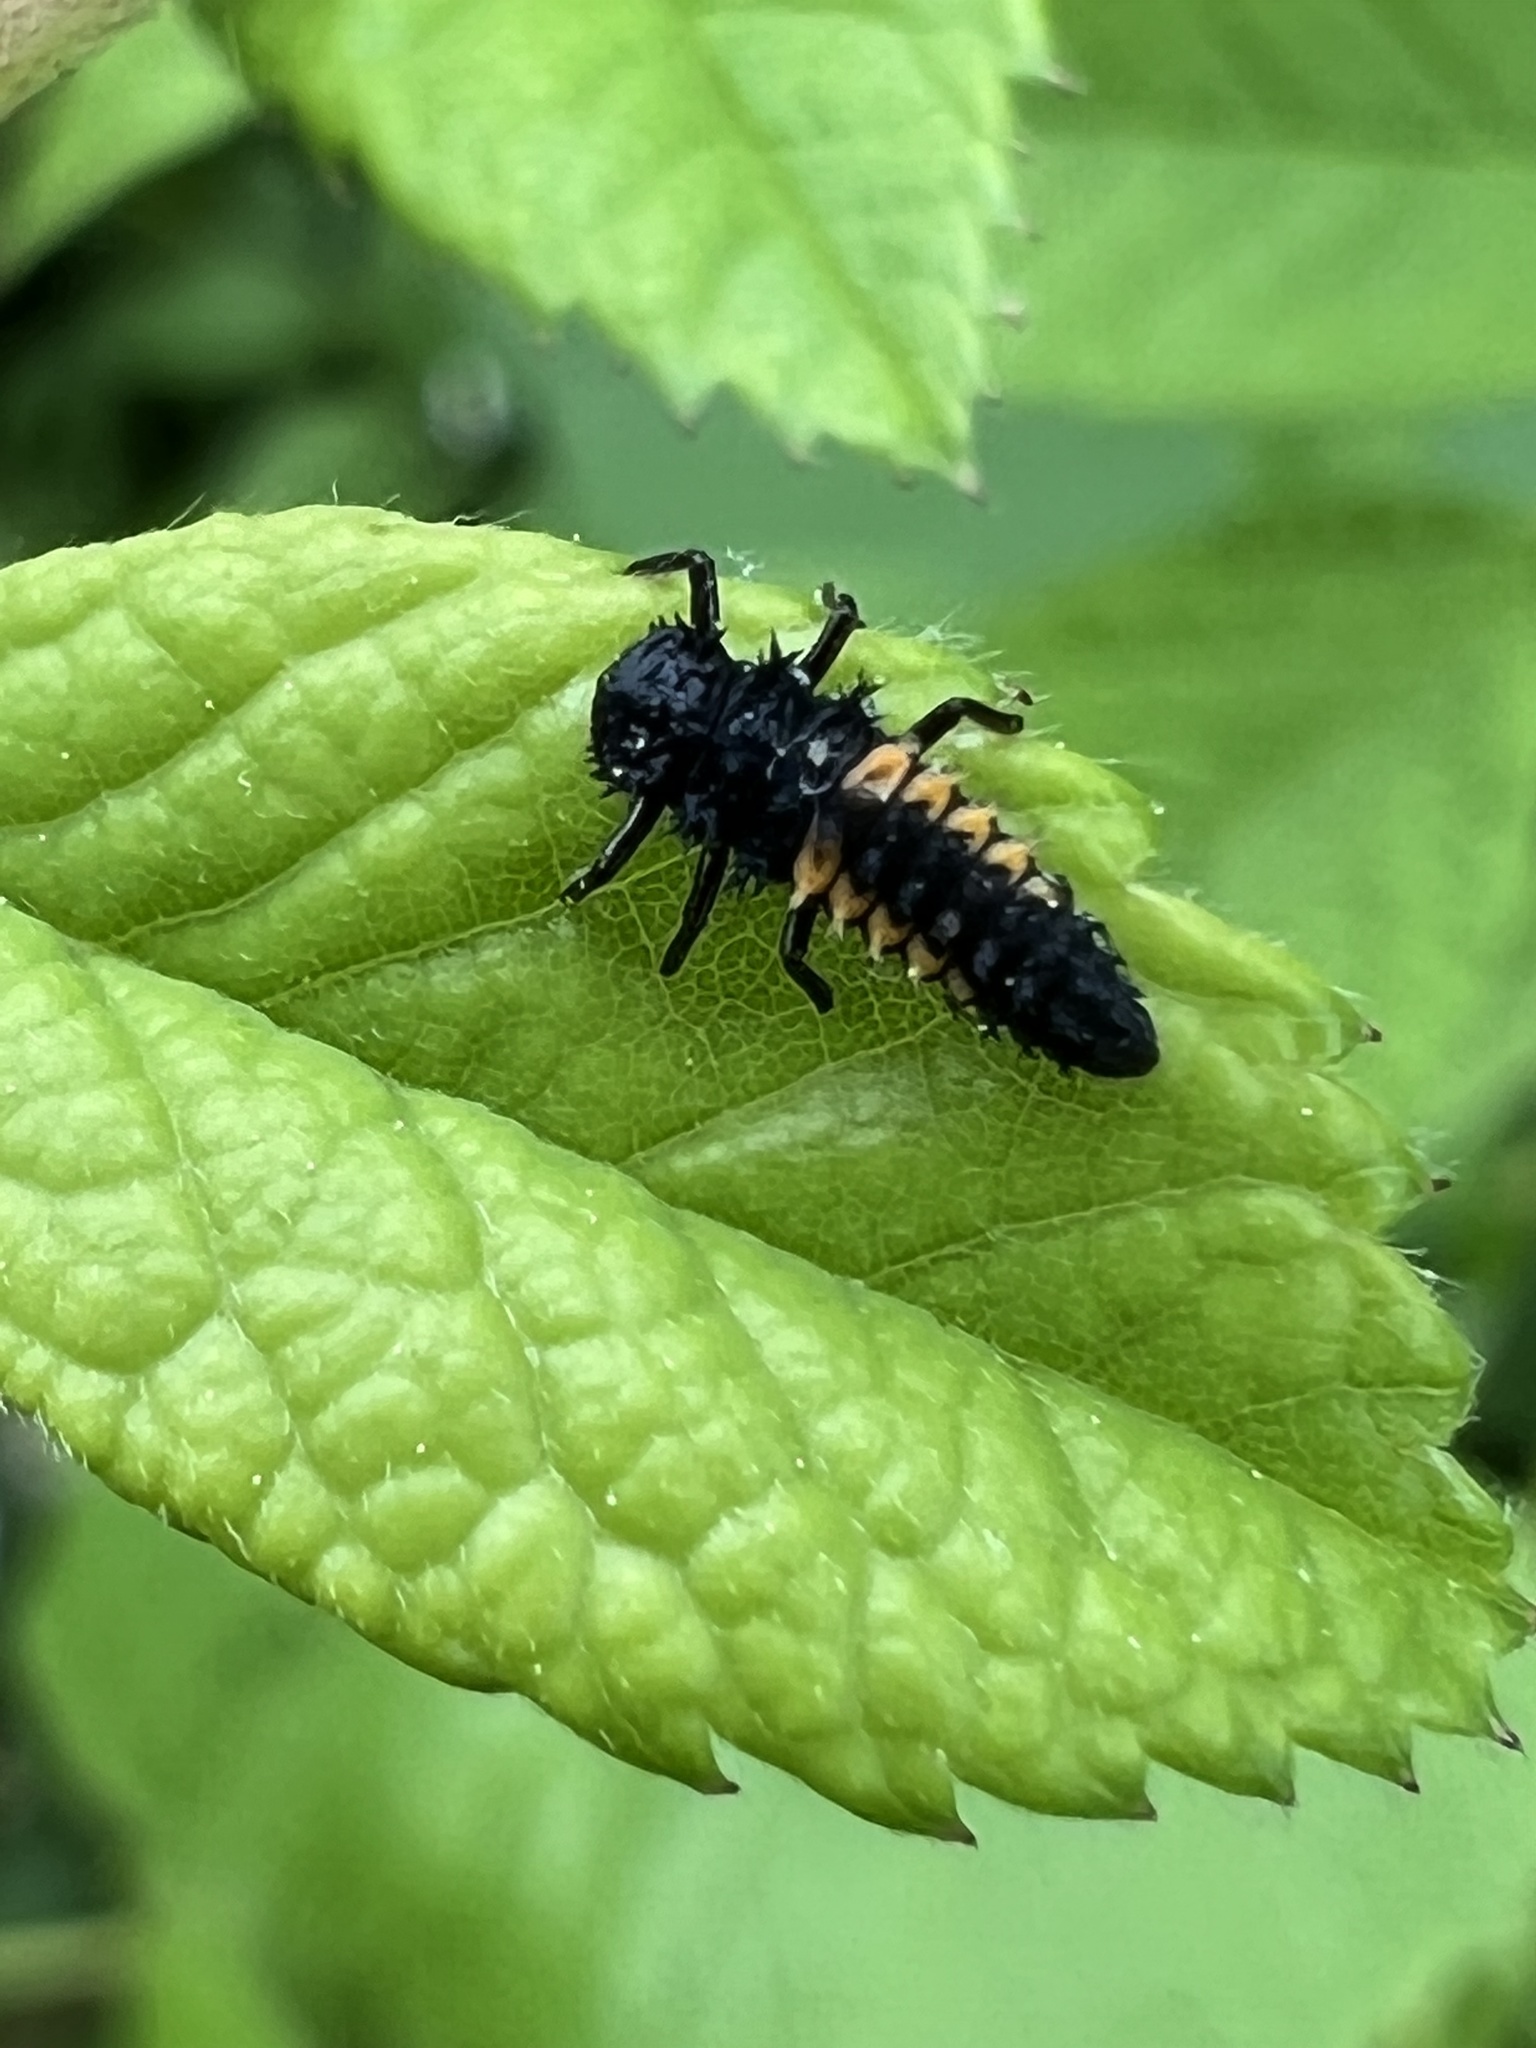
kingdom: Animalia
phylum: Arthropoda
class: Insecta
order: Coleoptera
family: Coccinellidae
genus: Harmonia
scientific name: Harmonia axyridis
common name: Harlequin ladybird
